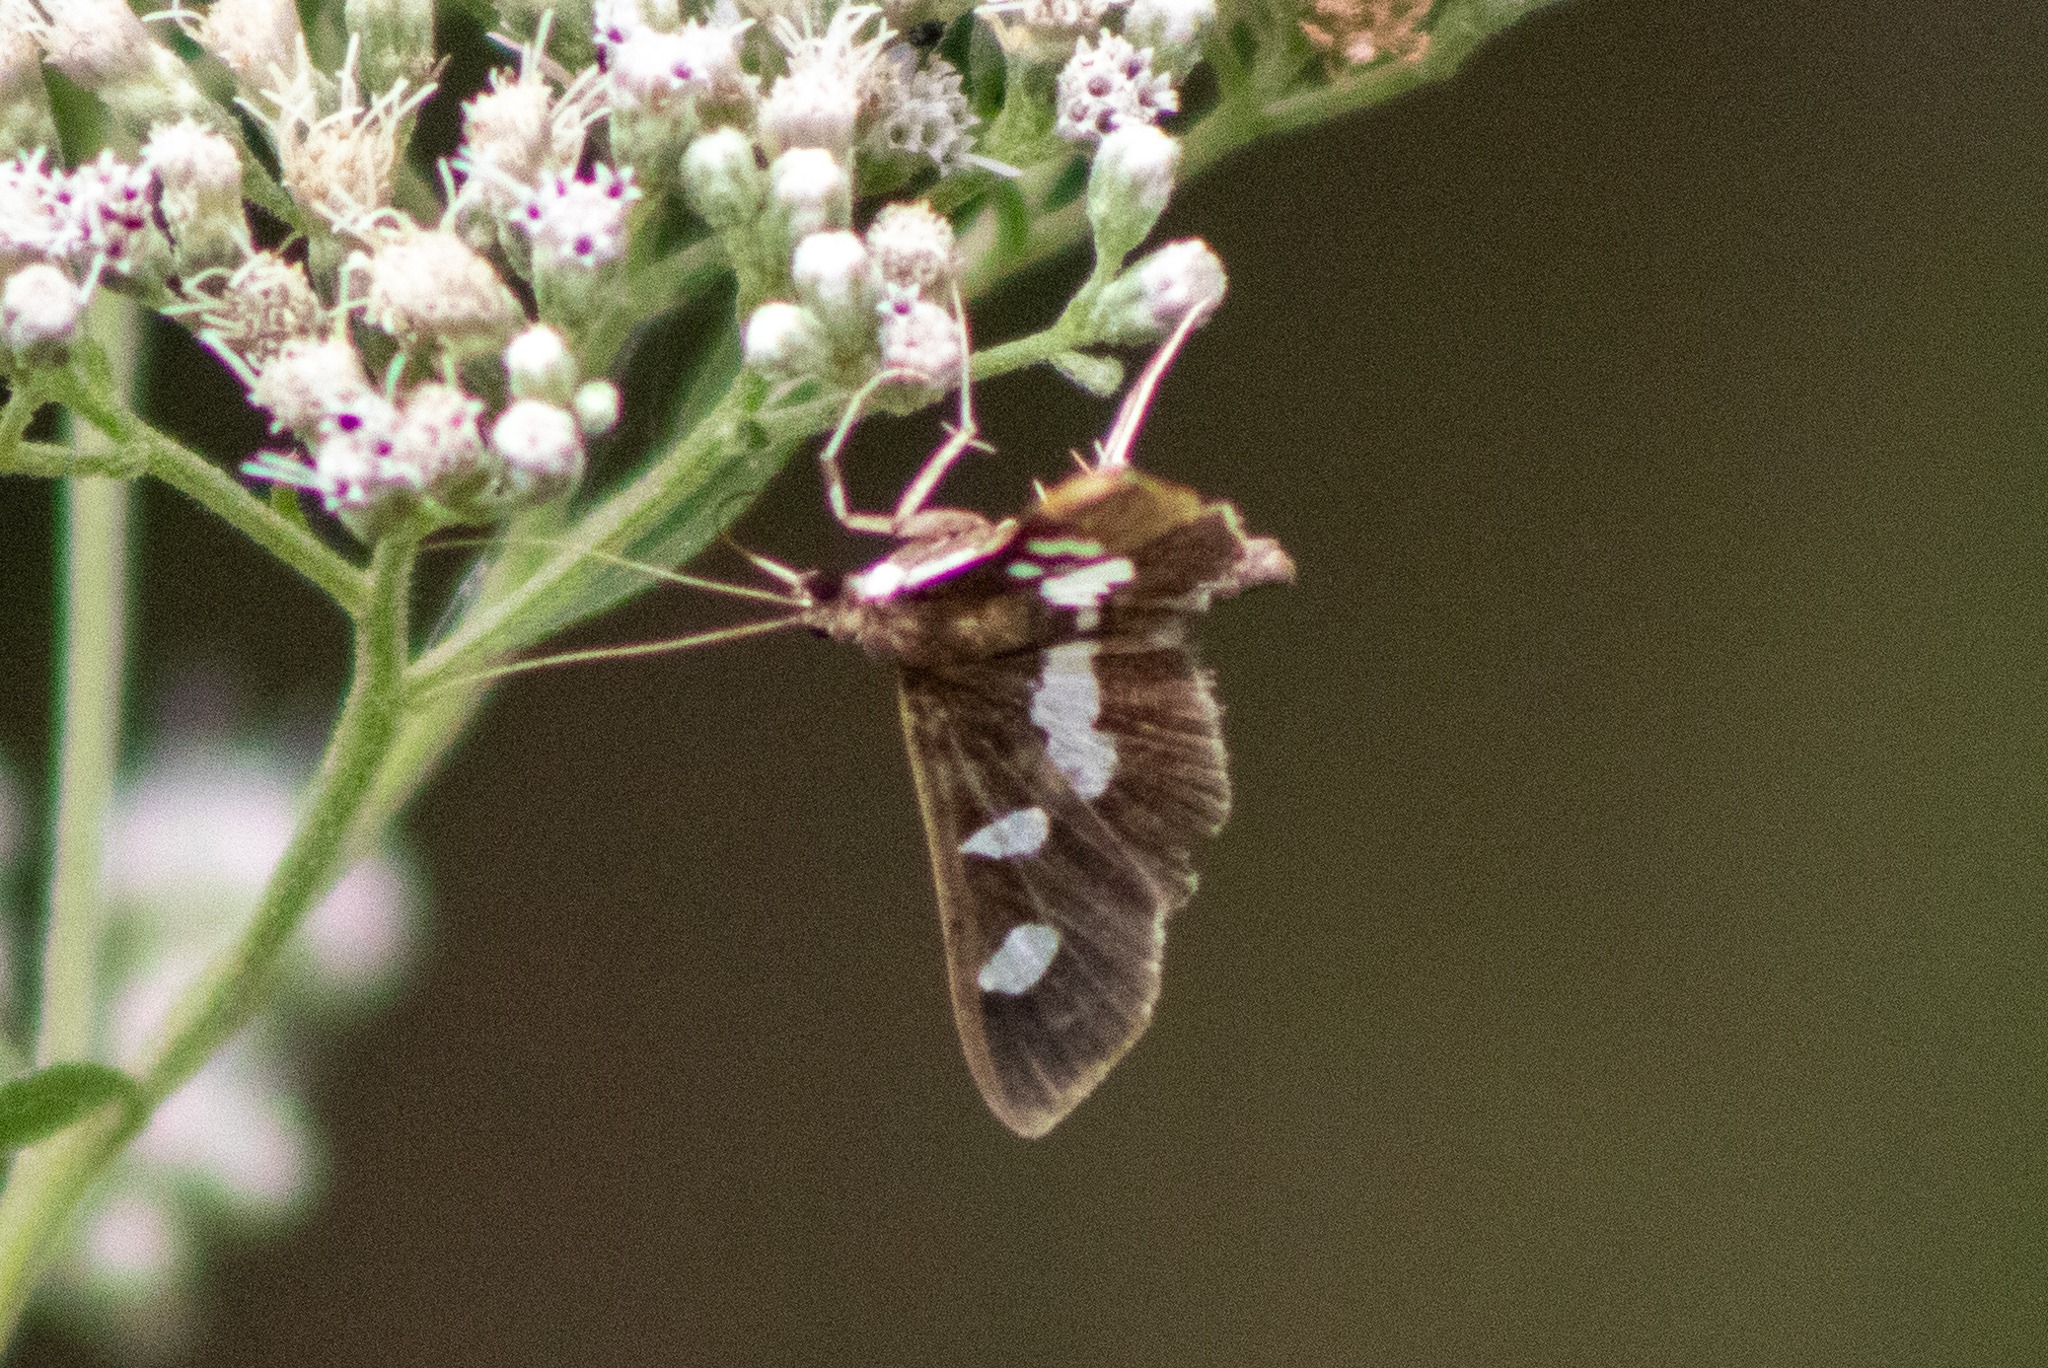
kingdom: Animalia
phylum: Arthropoda
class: Insecta
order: Lepidoptera
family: Crambidae
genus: Desmia
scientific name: Desmia
